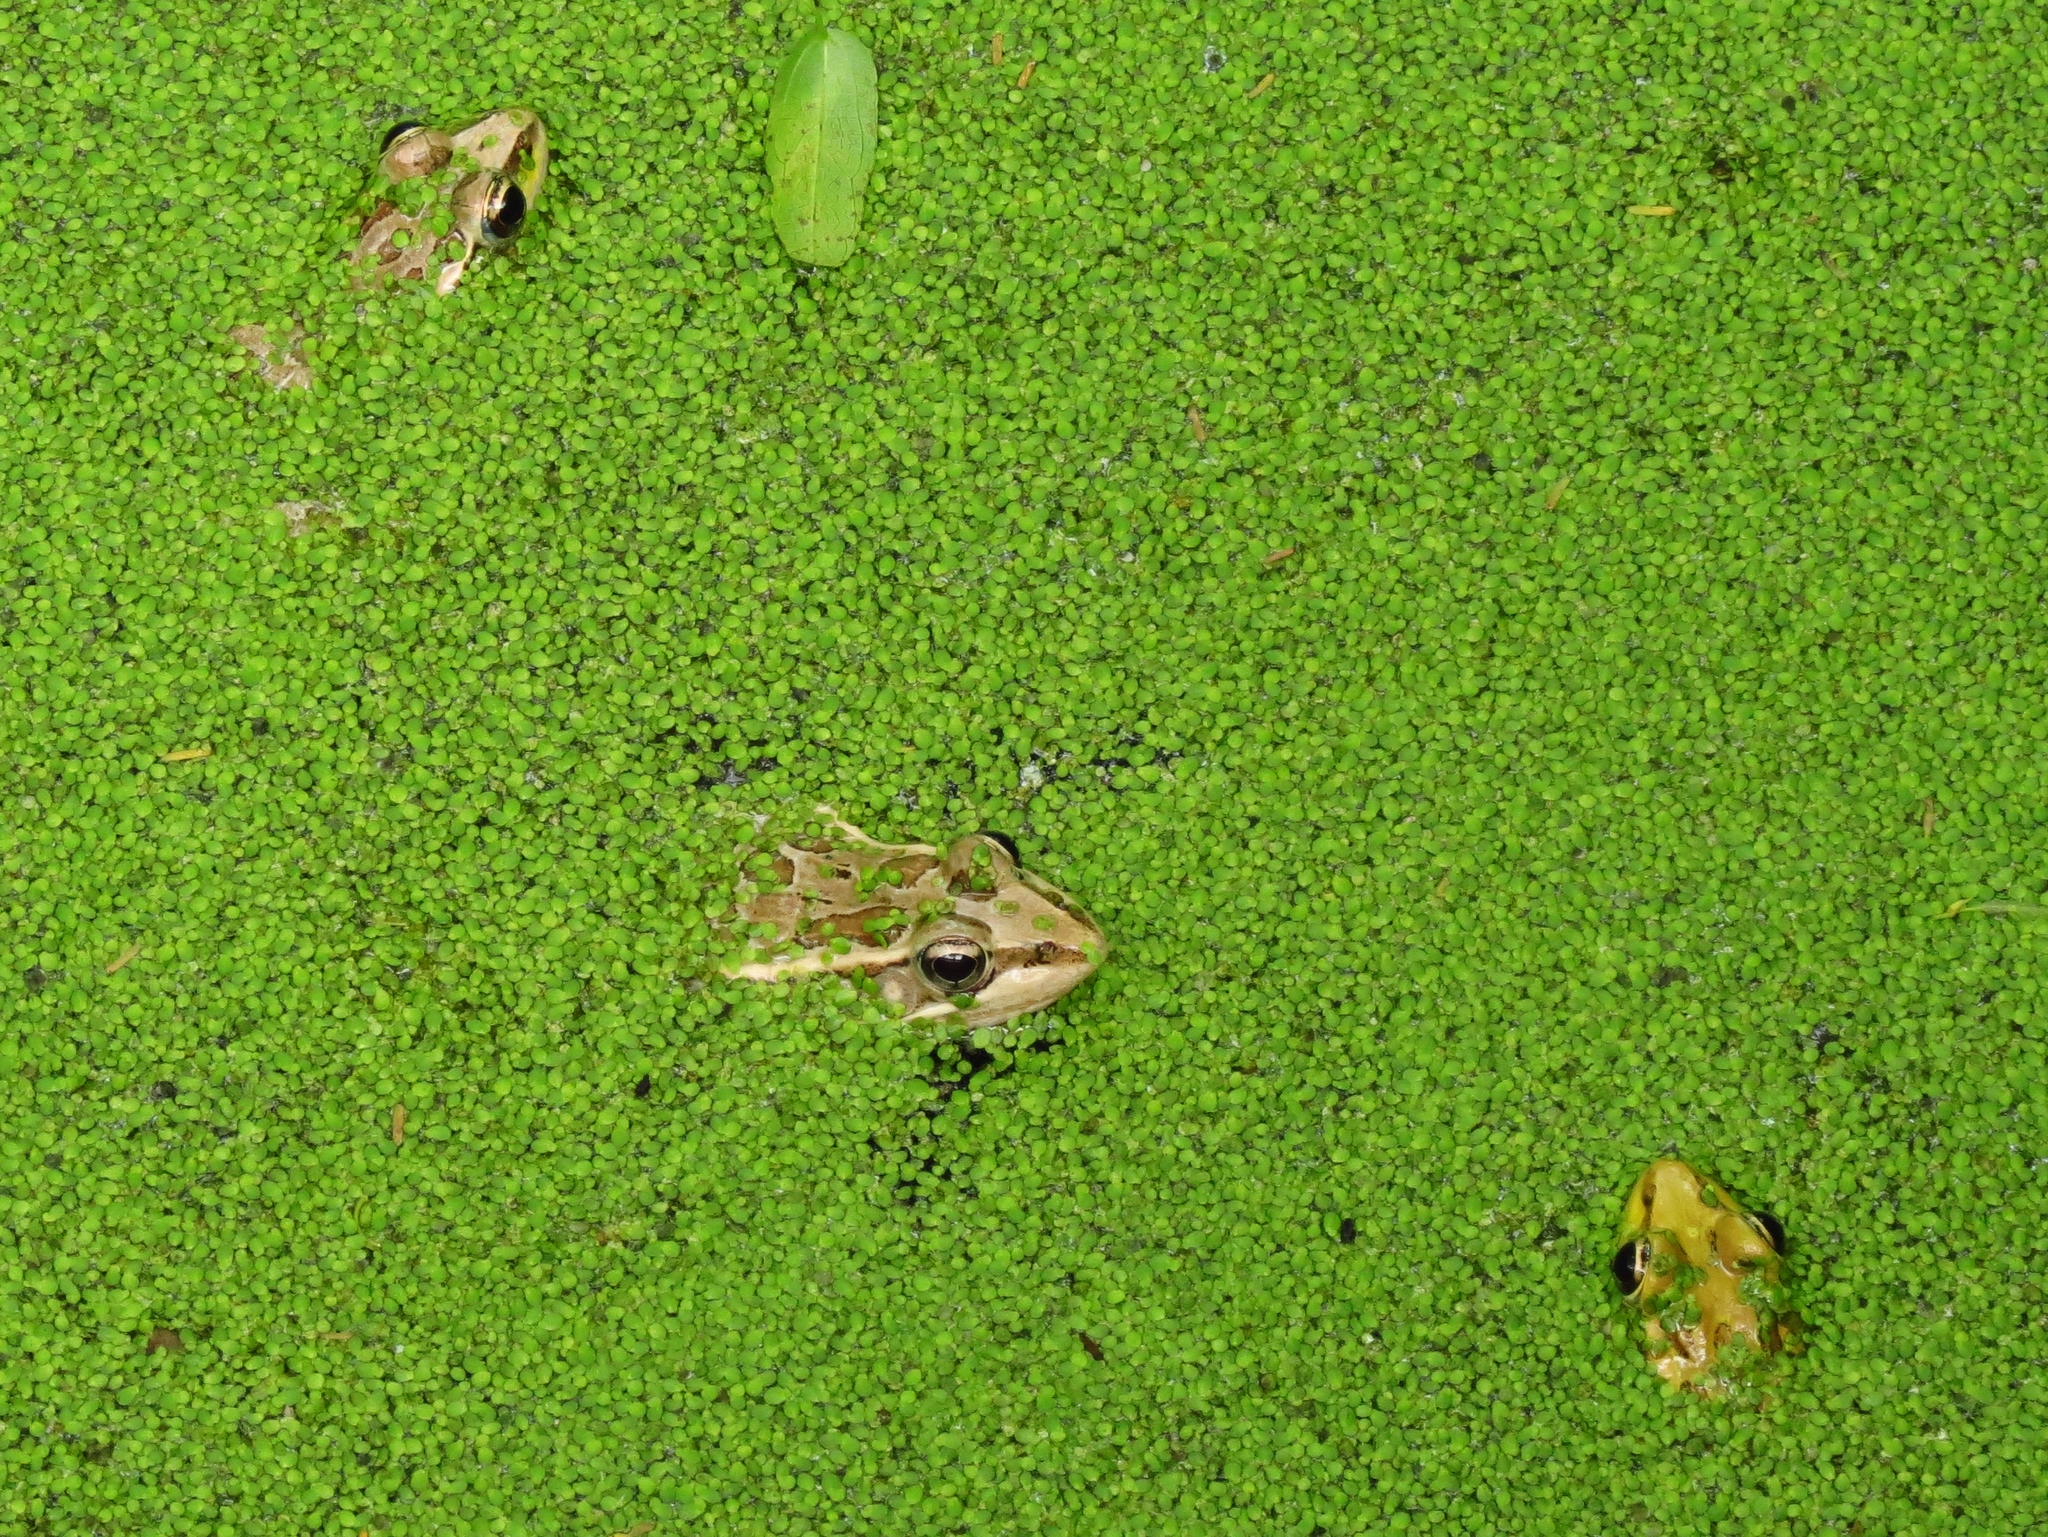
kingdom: Animalia
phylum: Chordata
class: Amphibia
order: Anura
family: Ranidae
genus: Lithobates
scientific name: Lithobates berlandieri
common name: Rio grande leopard frog
